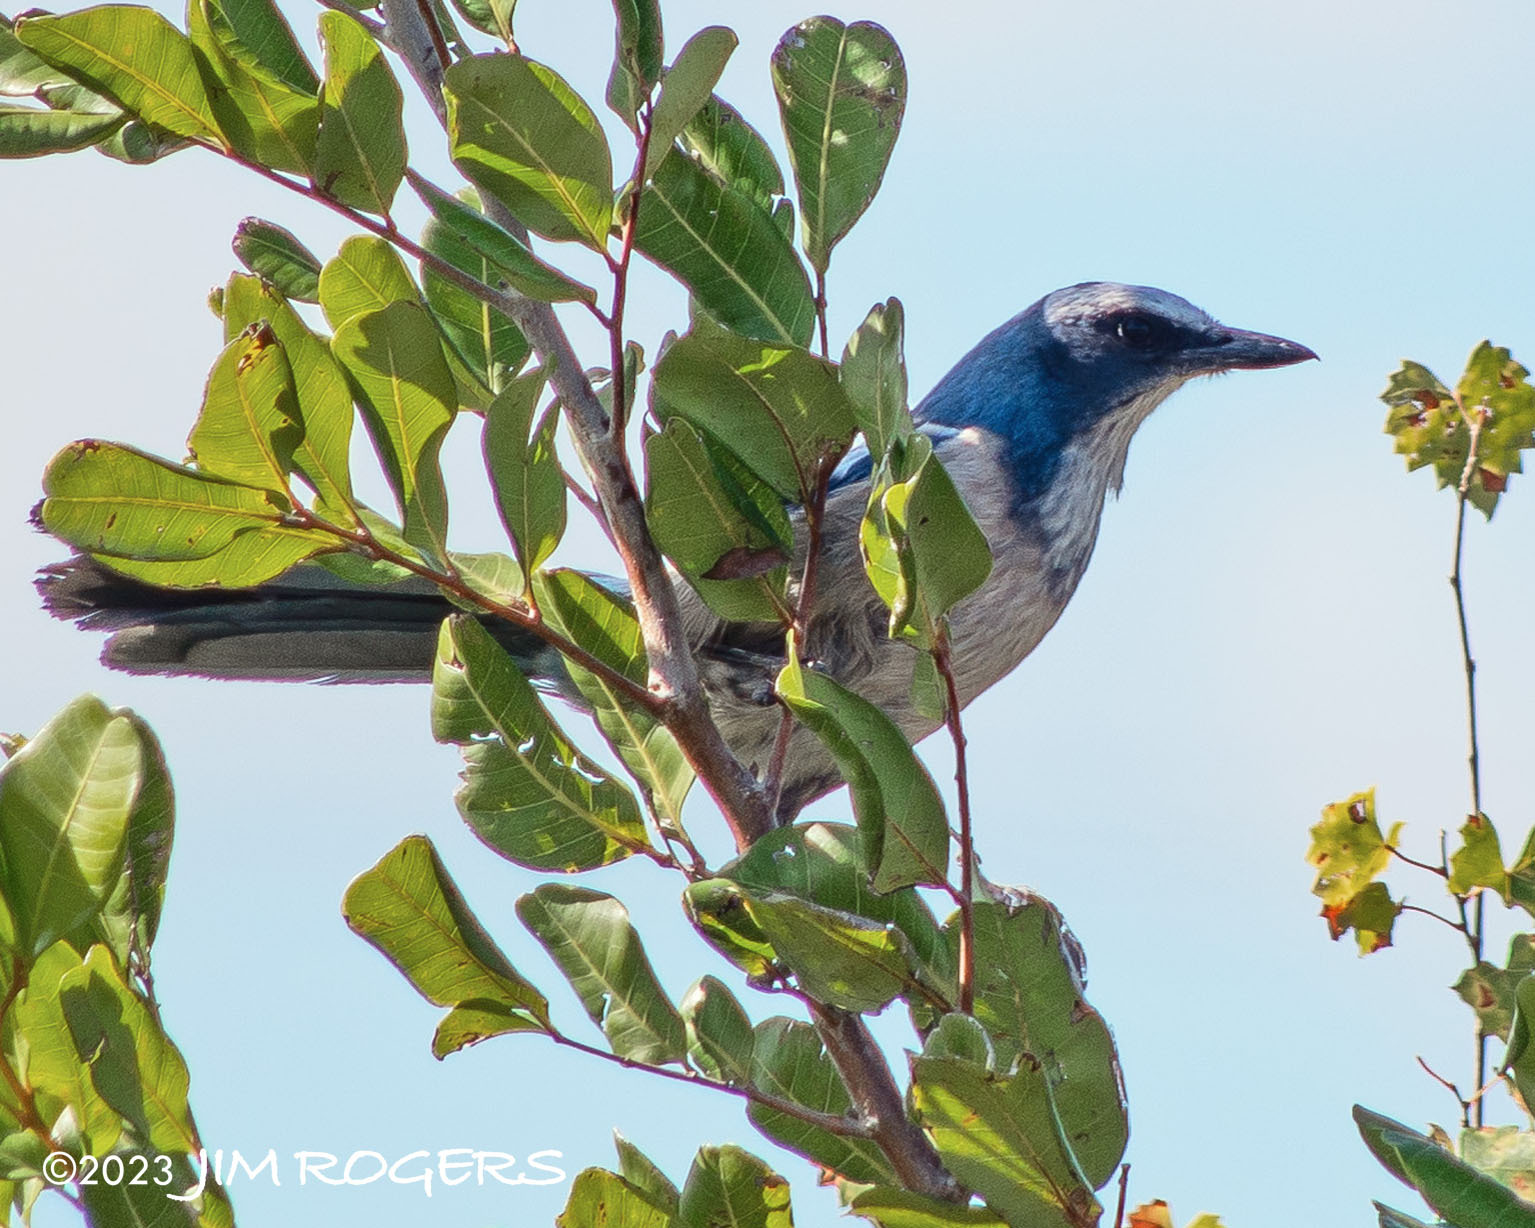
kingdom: Animalia
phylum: Chordata
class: Aves
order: Passeriformes
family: Corvidae
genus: Aphelocoma
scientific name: Aphelocoma coerulescens
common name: Florida scrub jay
